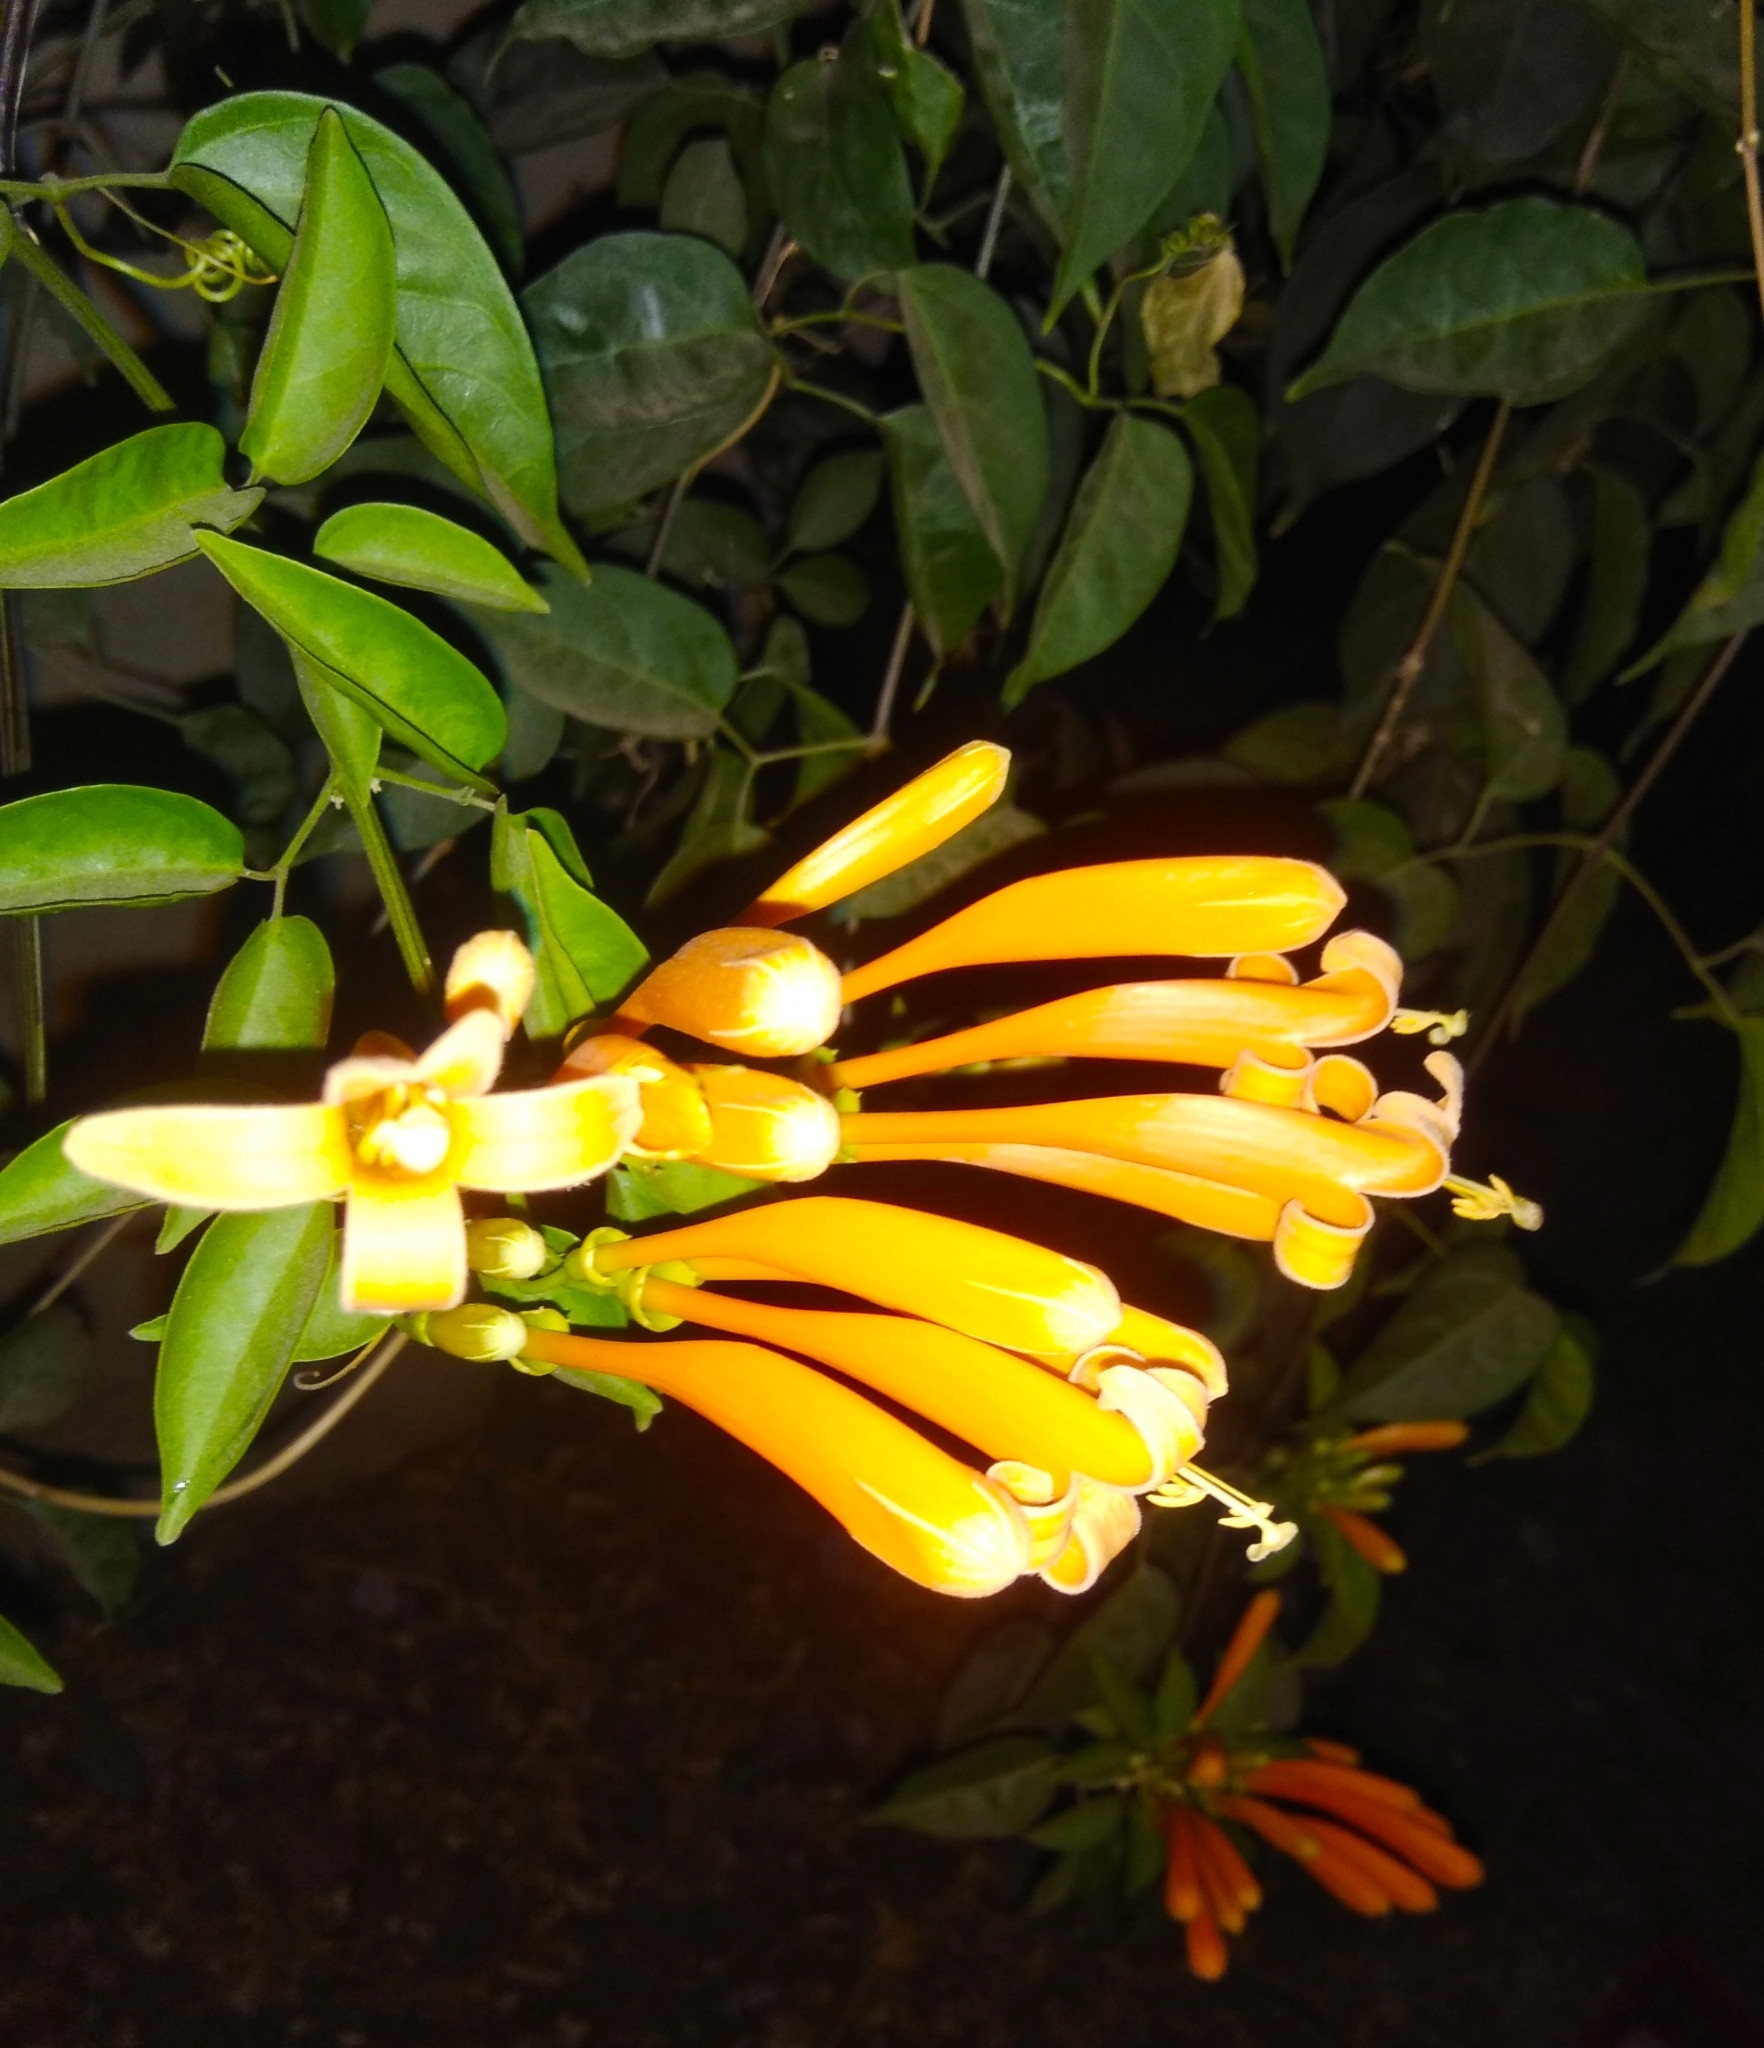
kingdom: Plantae
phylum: Tracheophyta
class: Magnoliopsida
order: Lamiales
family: Bignoniaceae
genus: Pyrostegia
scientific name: Pyrostegia venusta
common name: Flamevine
